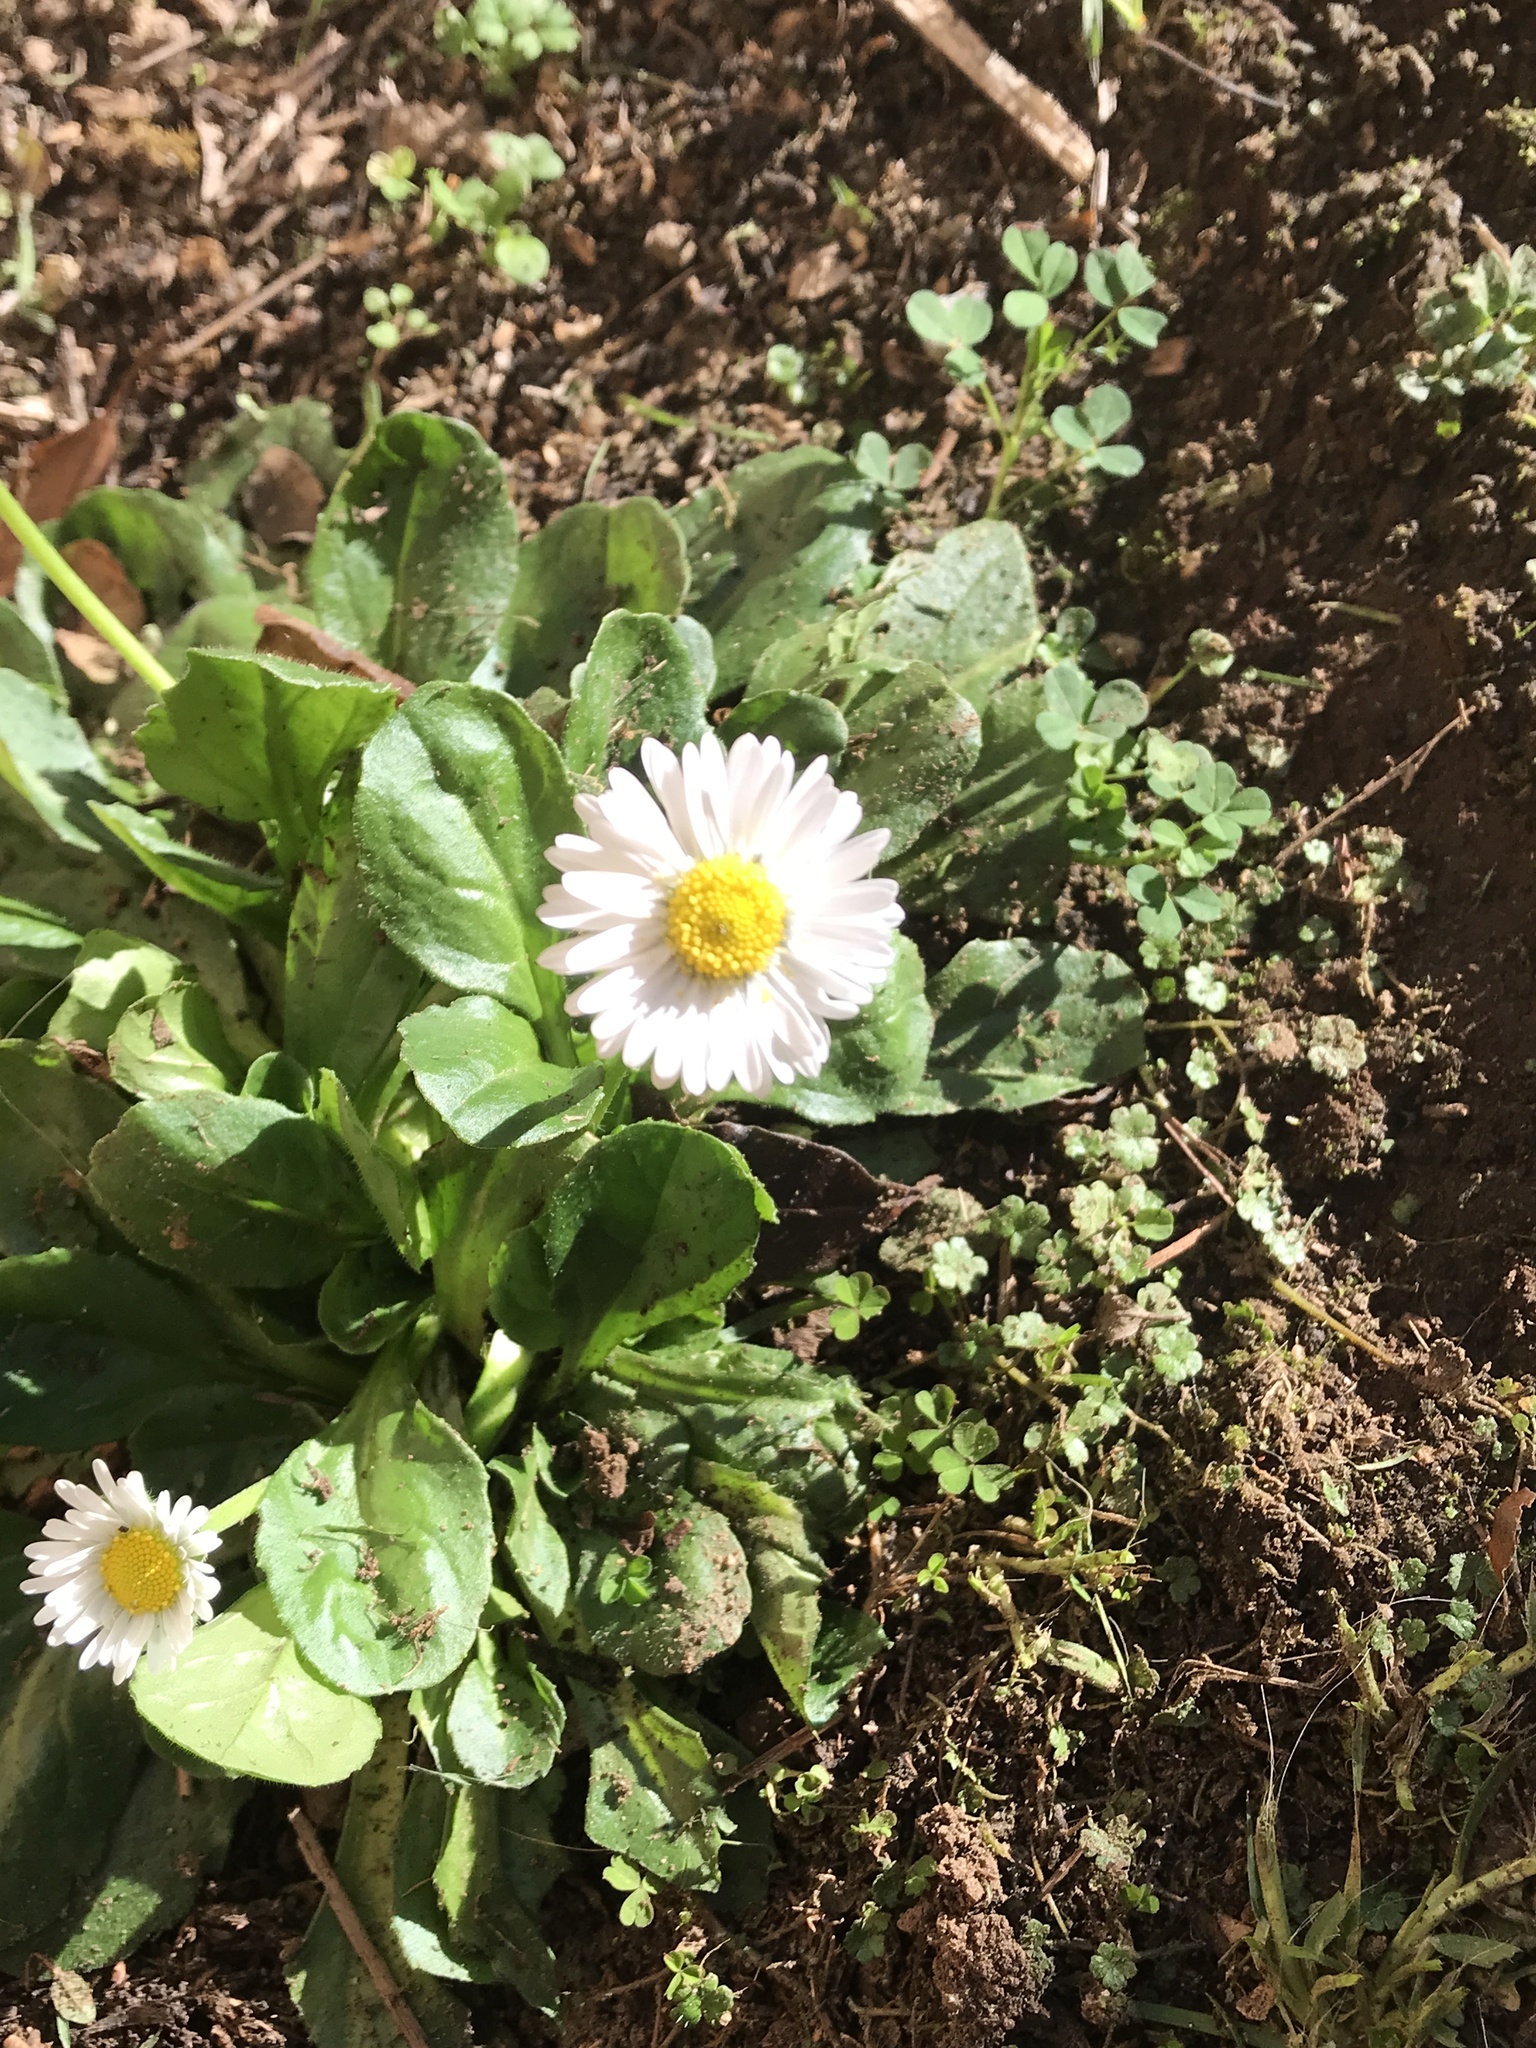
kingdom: Plantae
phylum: Tracheophyta
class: Magnoliopsida
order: Asterales
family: Asteraceae
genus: Bellis
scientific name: Bellis perennis
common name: Lawndaisy
